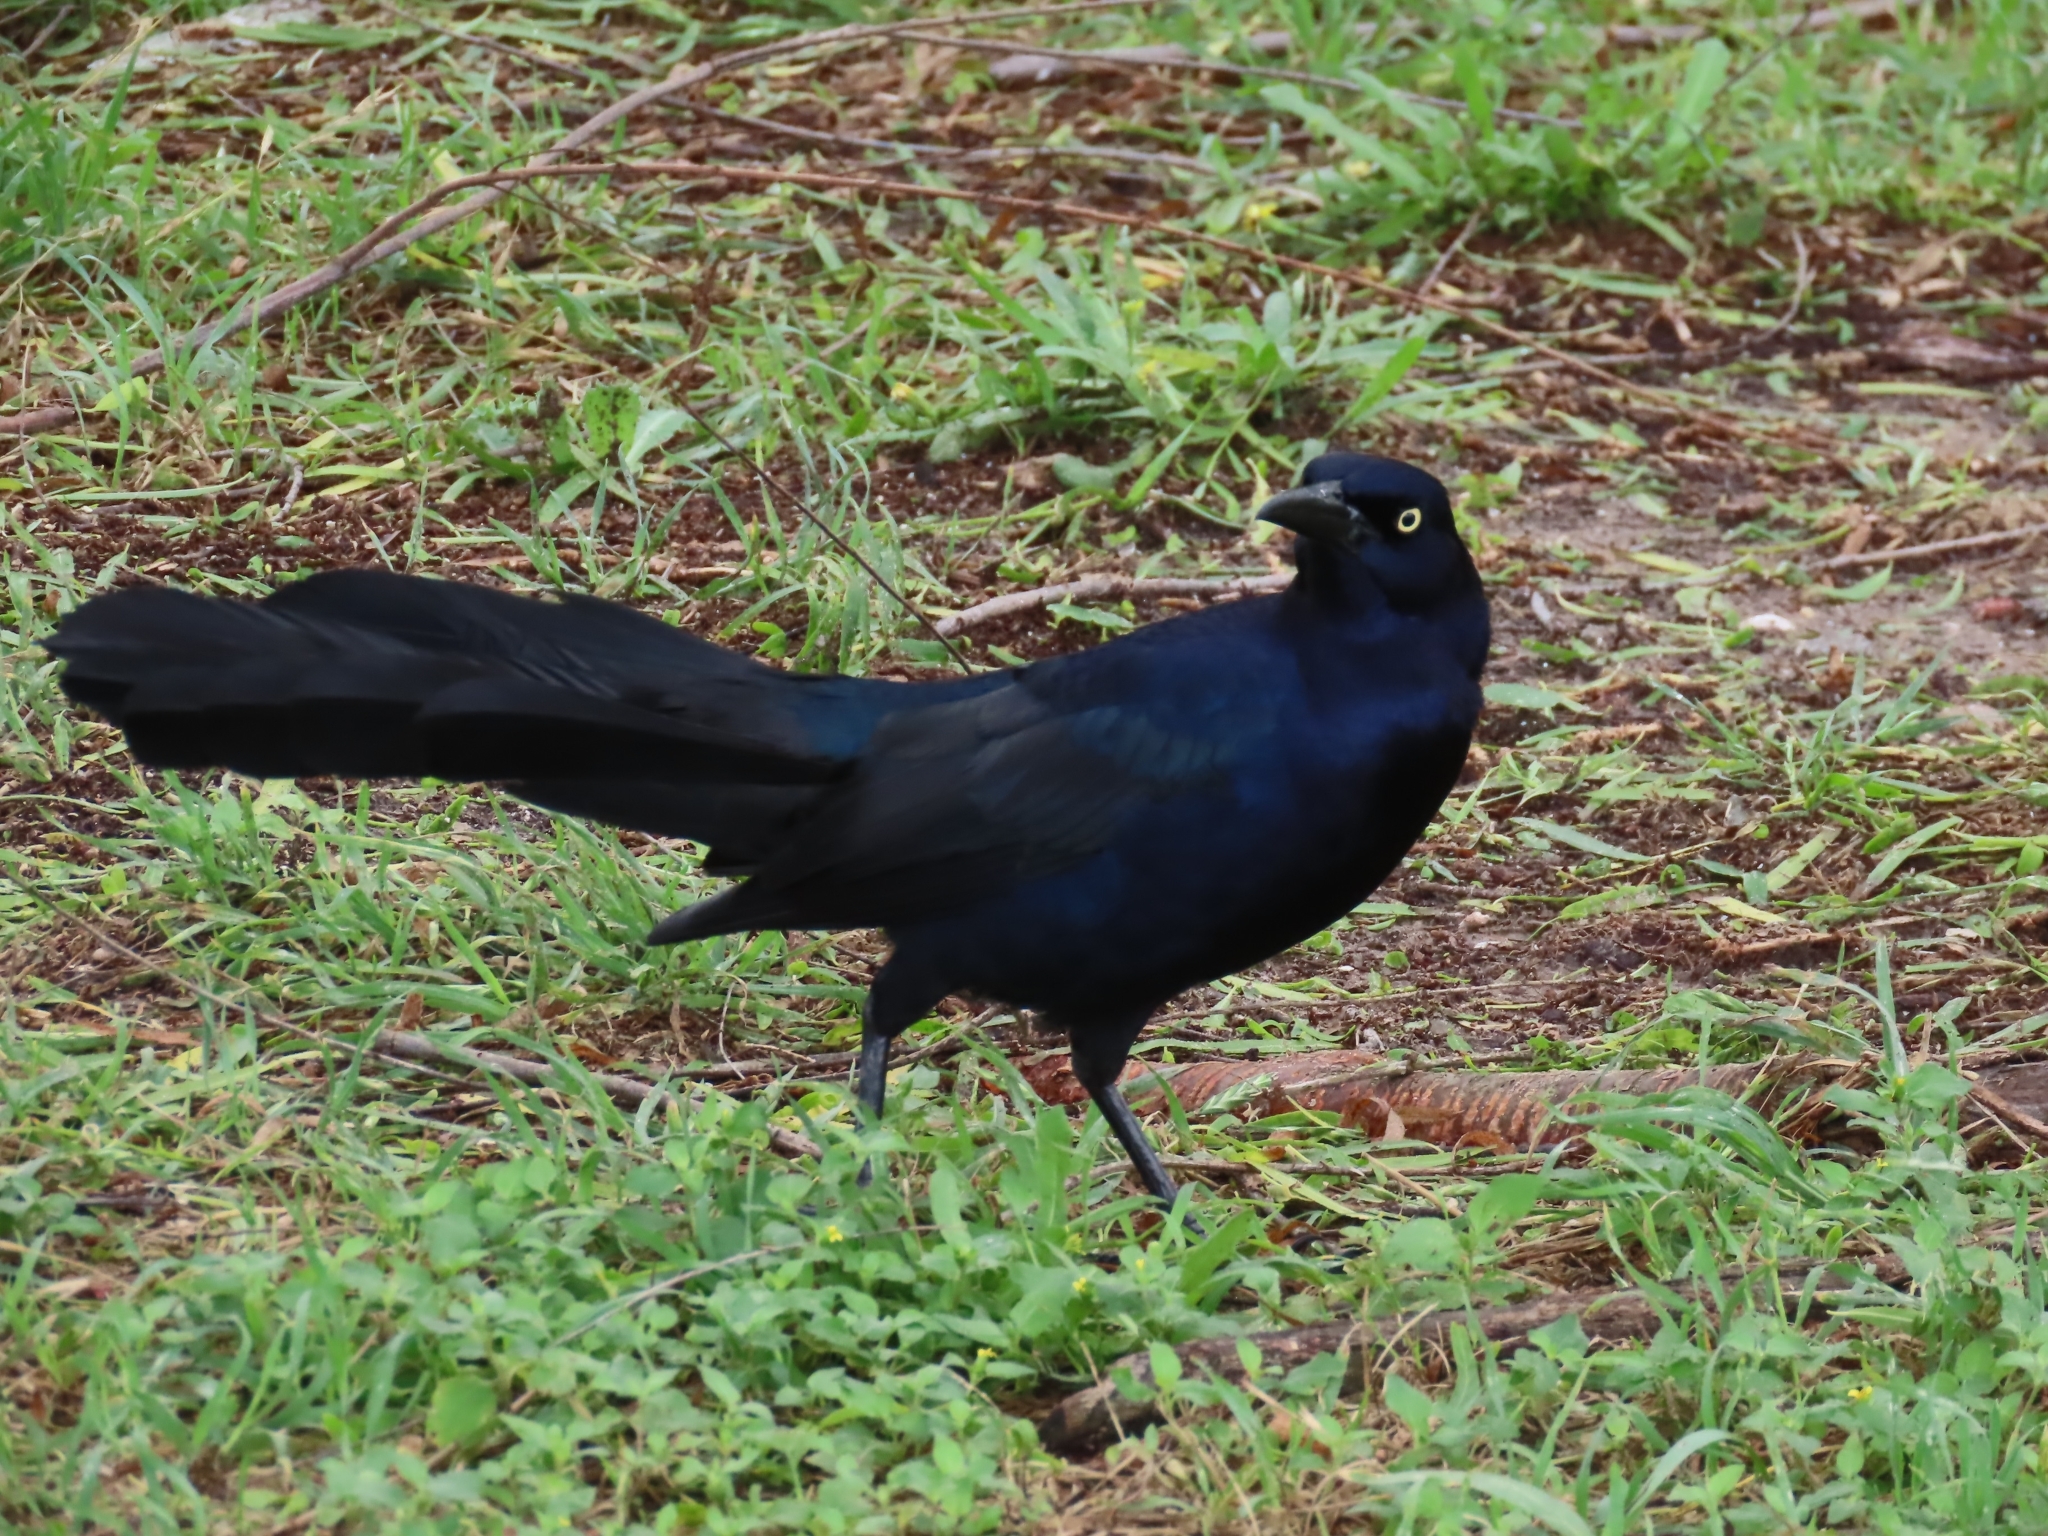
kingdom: Animalia
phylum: Chordata
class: Aves
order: Passeriformes
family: Icteridae
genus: Quiscalus
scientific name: Quiscalus mexicanus
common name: Great-tailed grackle
